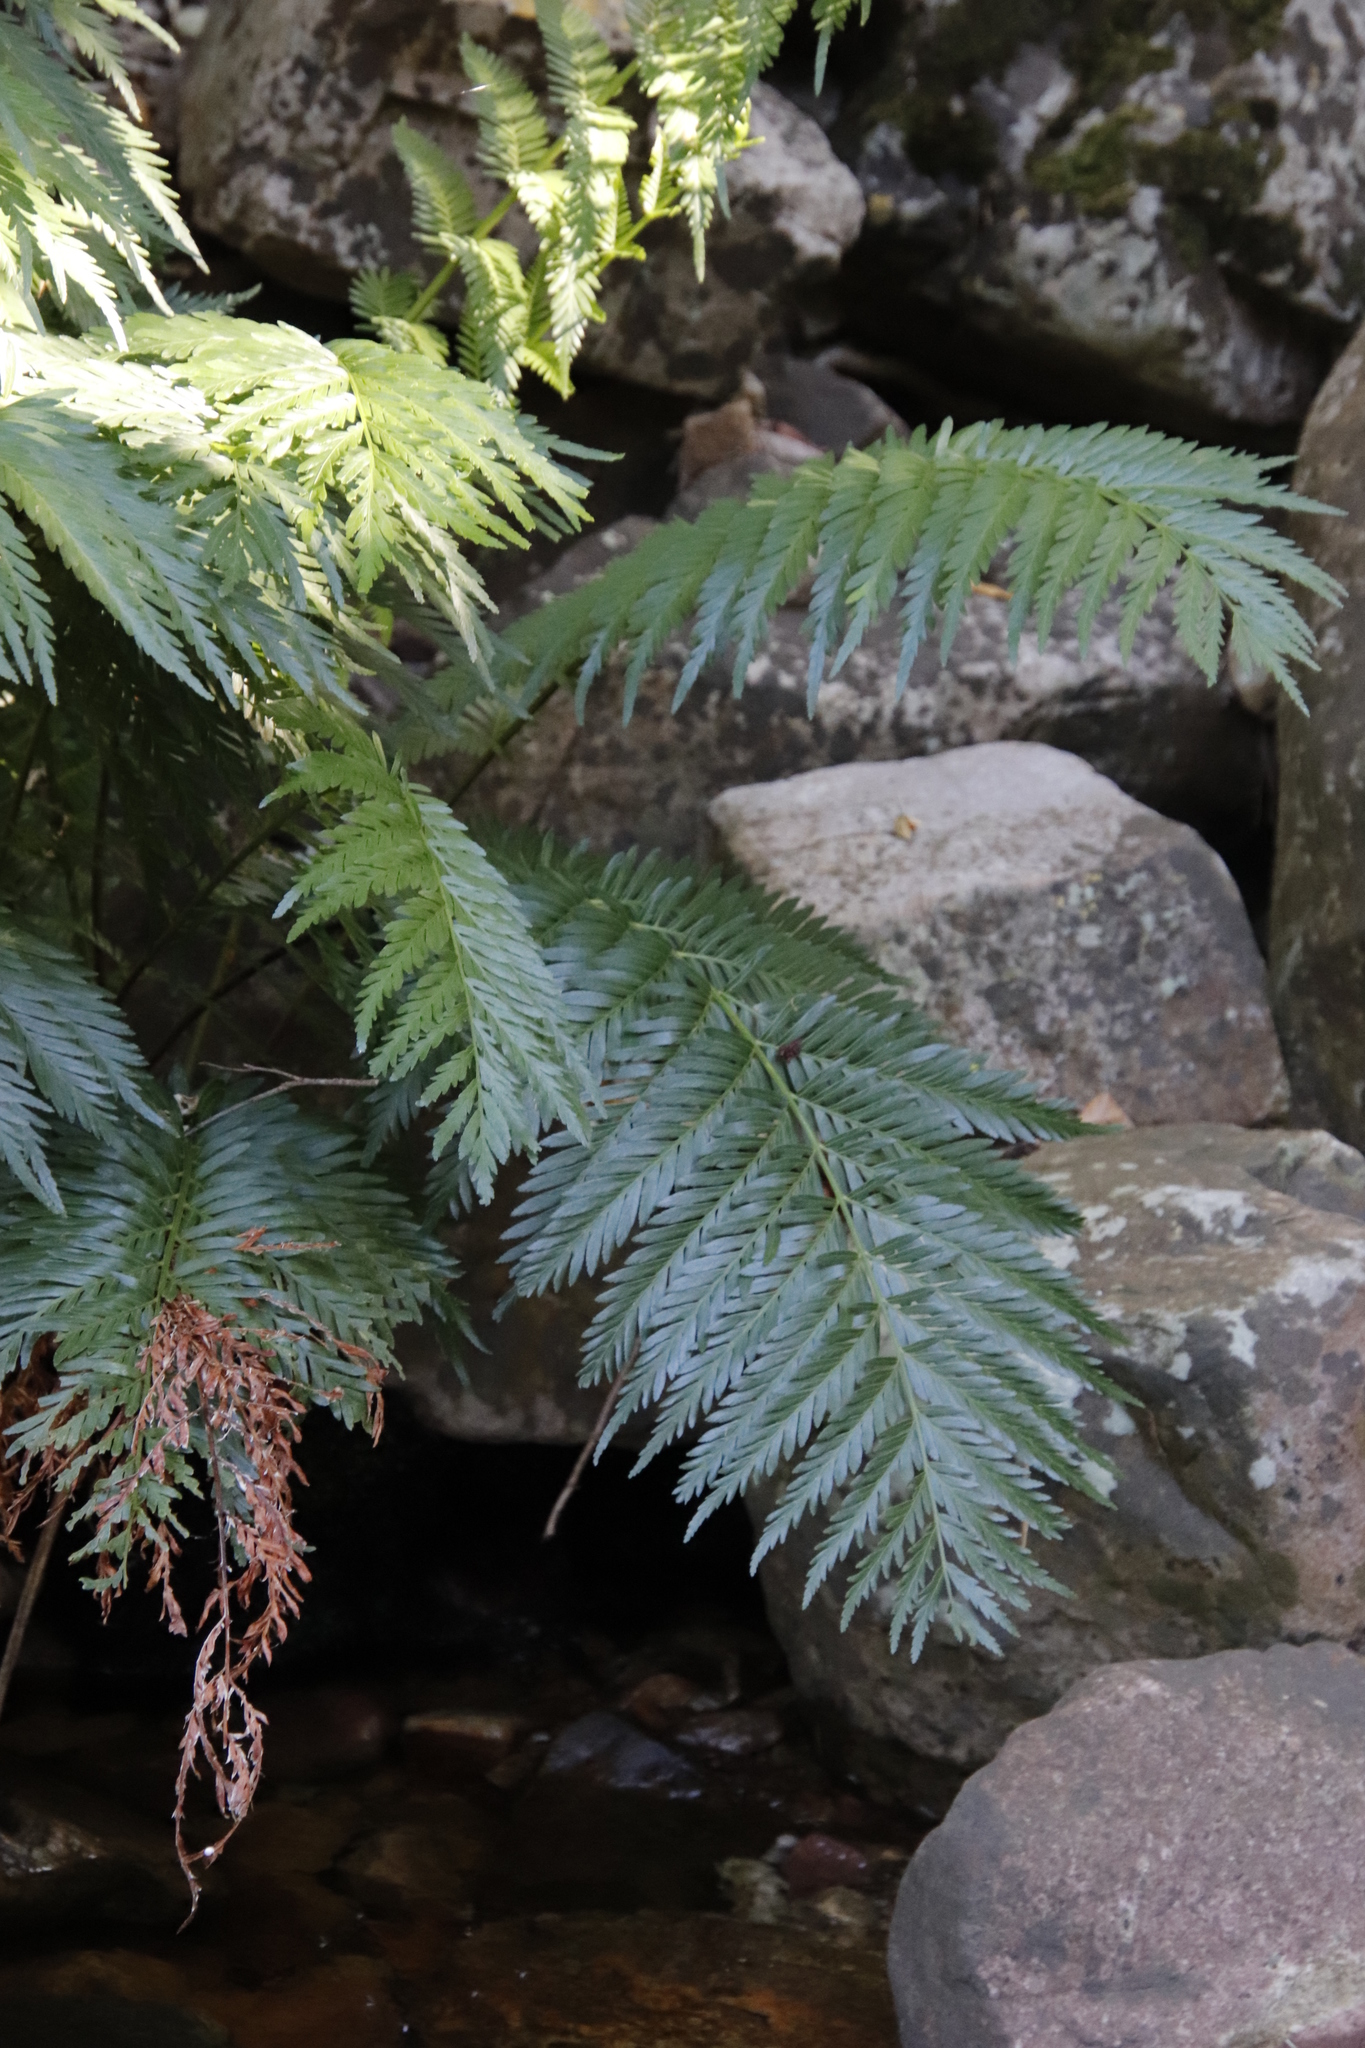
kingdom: Plantae
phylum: Tracheophyta
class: Polypodiopsida
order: Osmundales
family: Osmundaceae
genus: Todea
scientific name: Todea barbara
